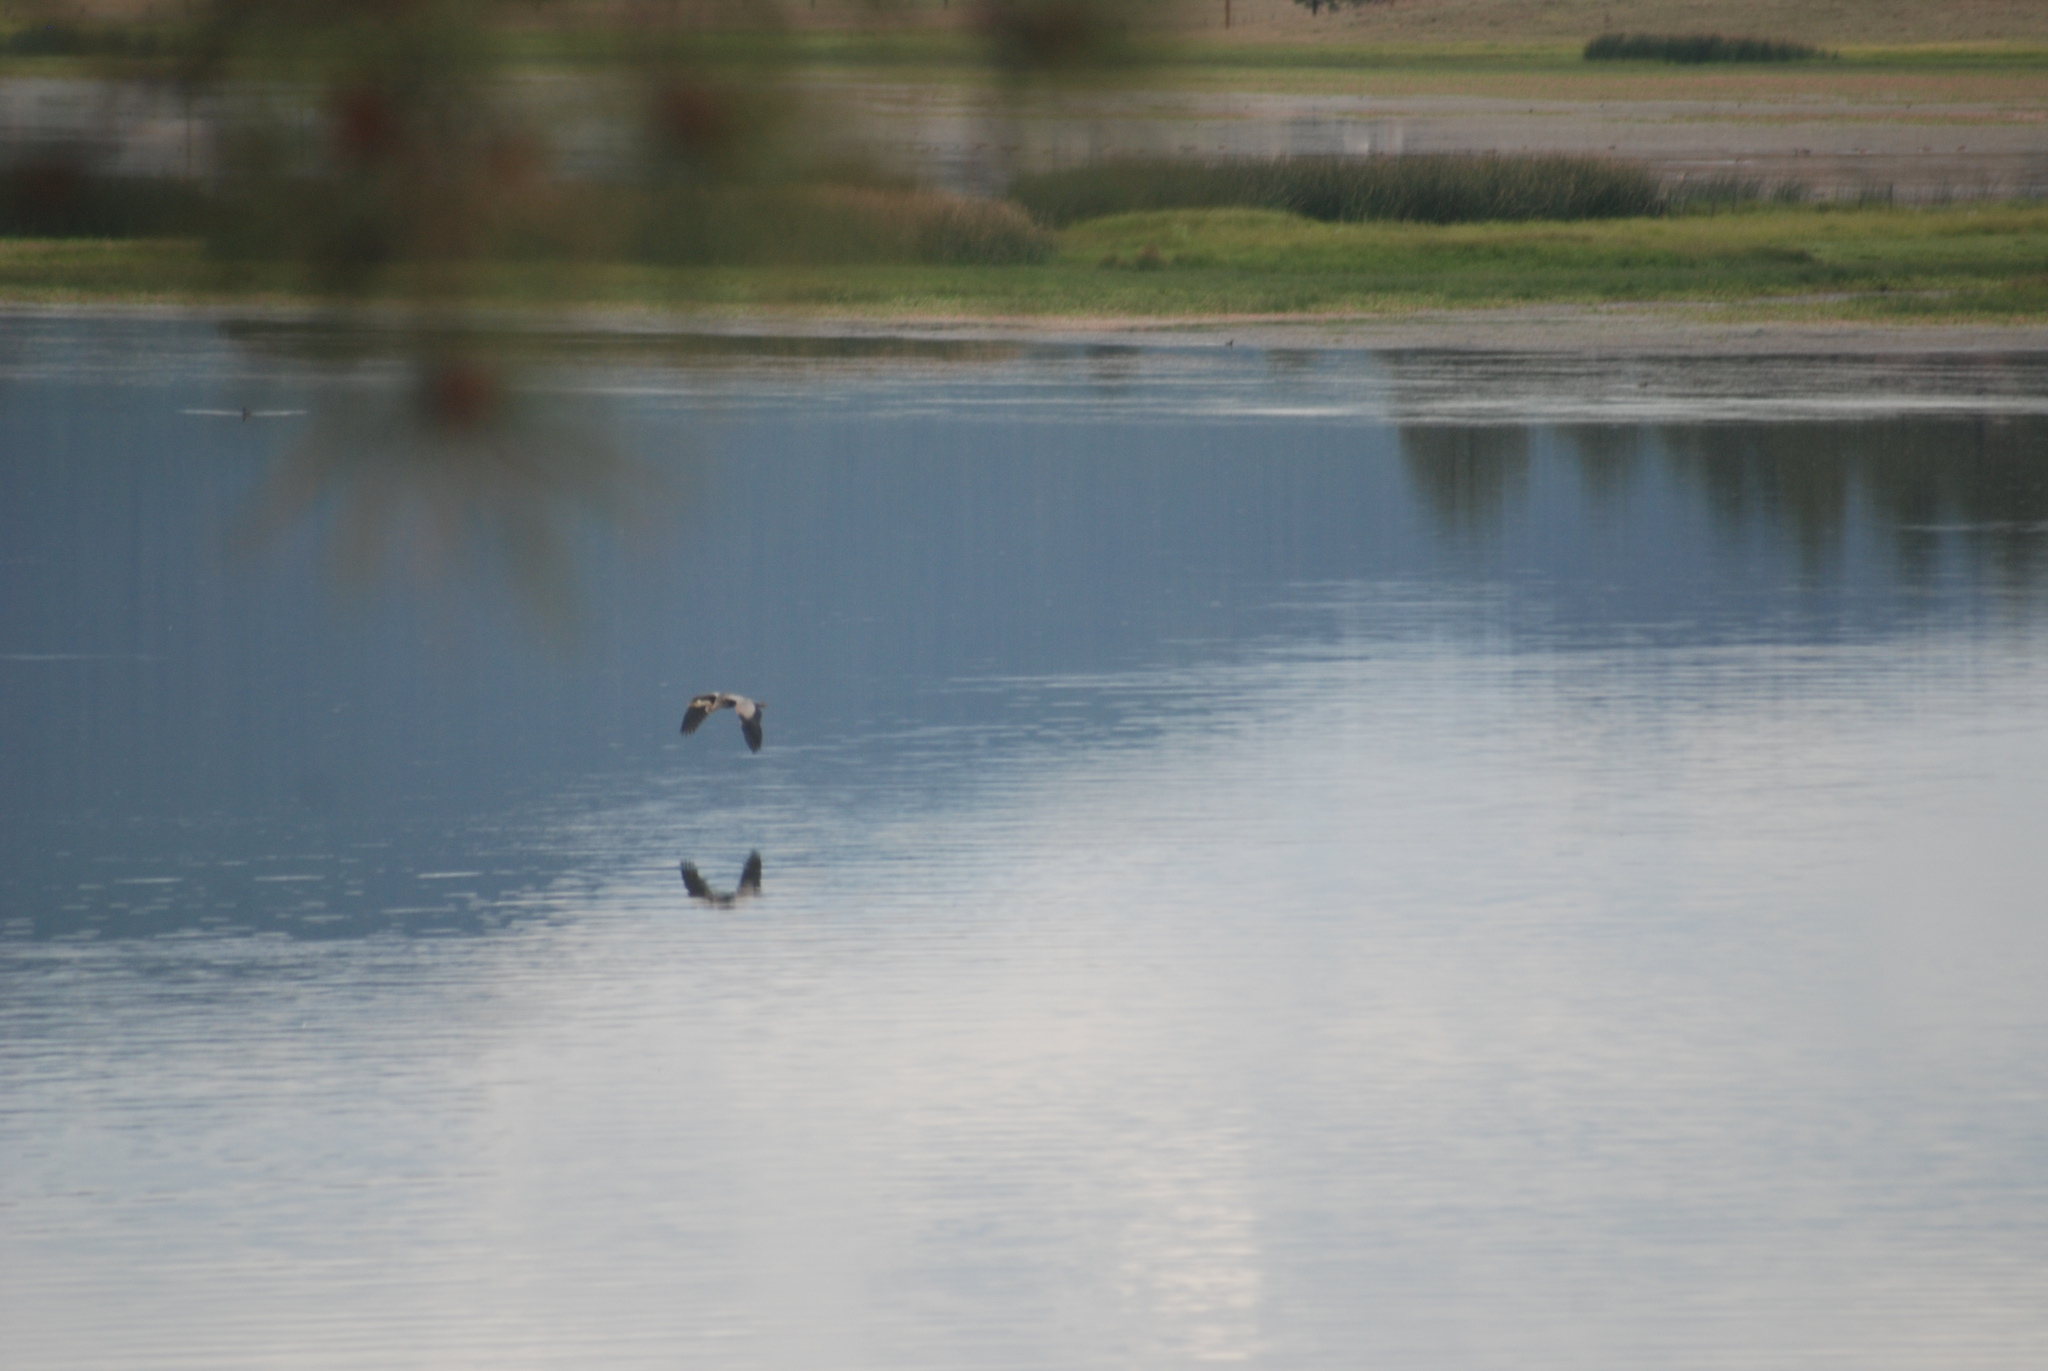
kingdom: Animalia
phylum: Chordata
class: Aves
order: Pelecaniformes
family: Ardeidae
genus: Ardea
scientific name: Ardea herodias
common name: Great blue heron
